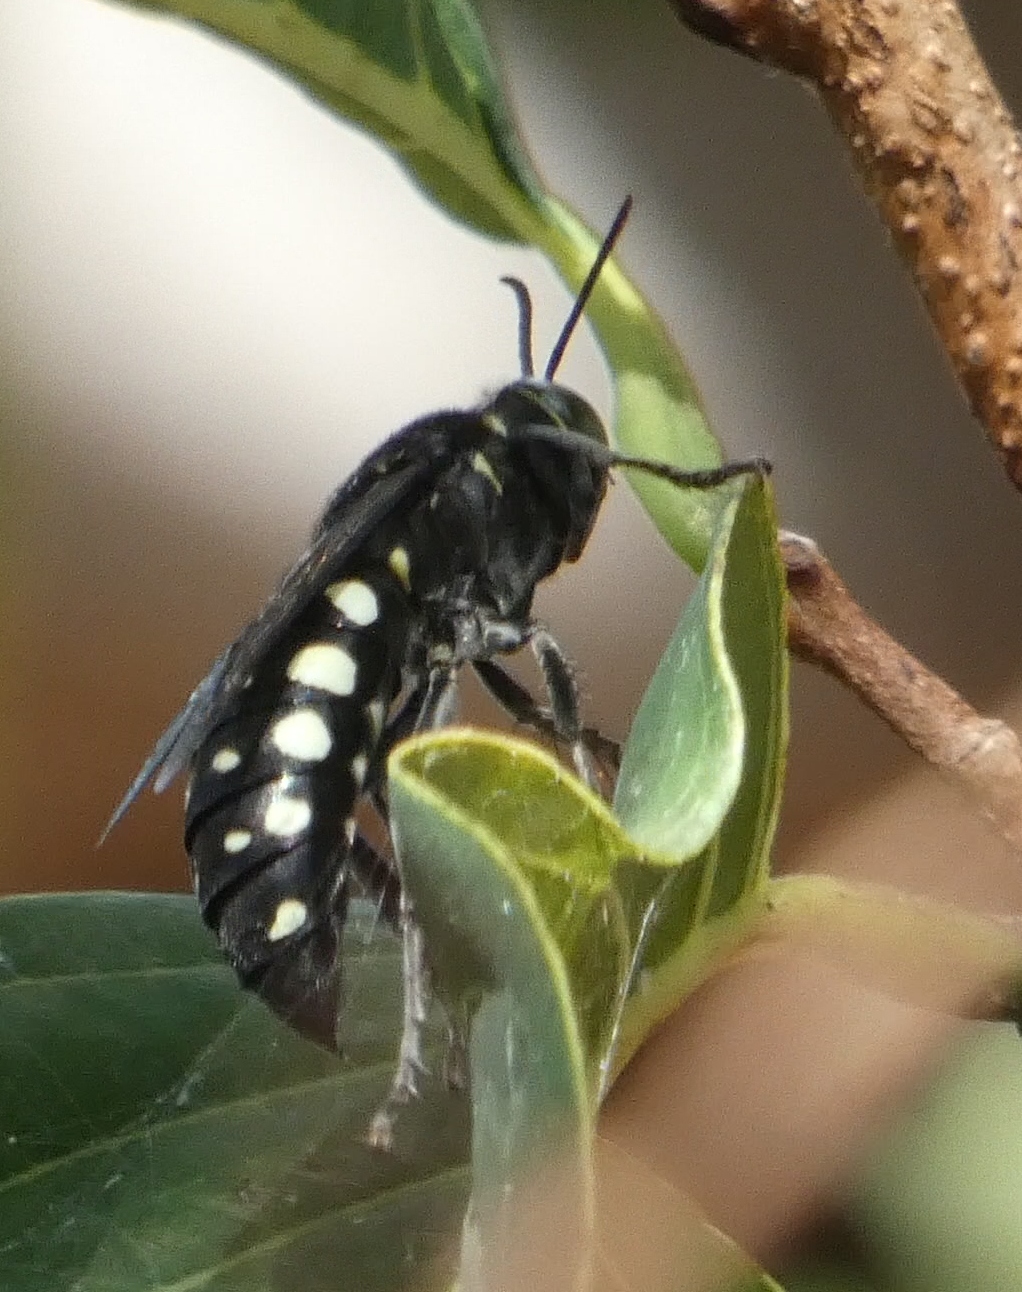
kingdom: Animalia
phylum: Arthropoda
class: Insecta
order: Hymenoptera
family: Crabronidae
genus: Stictia
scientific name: Stictia punctata
